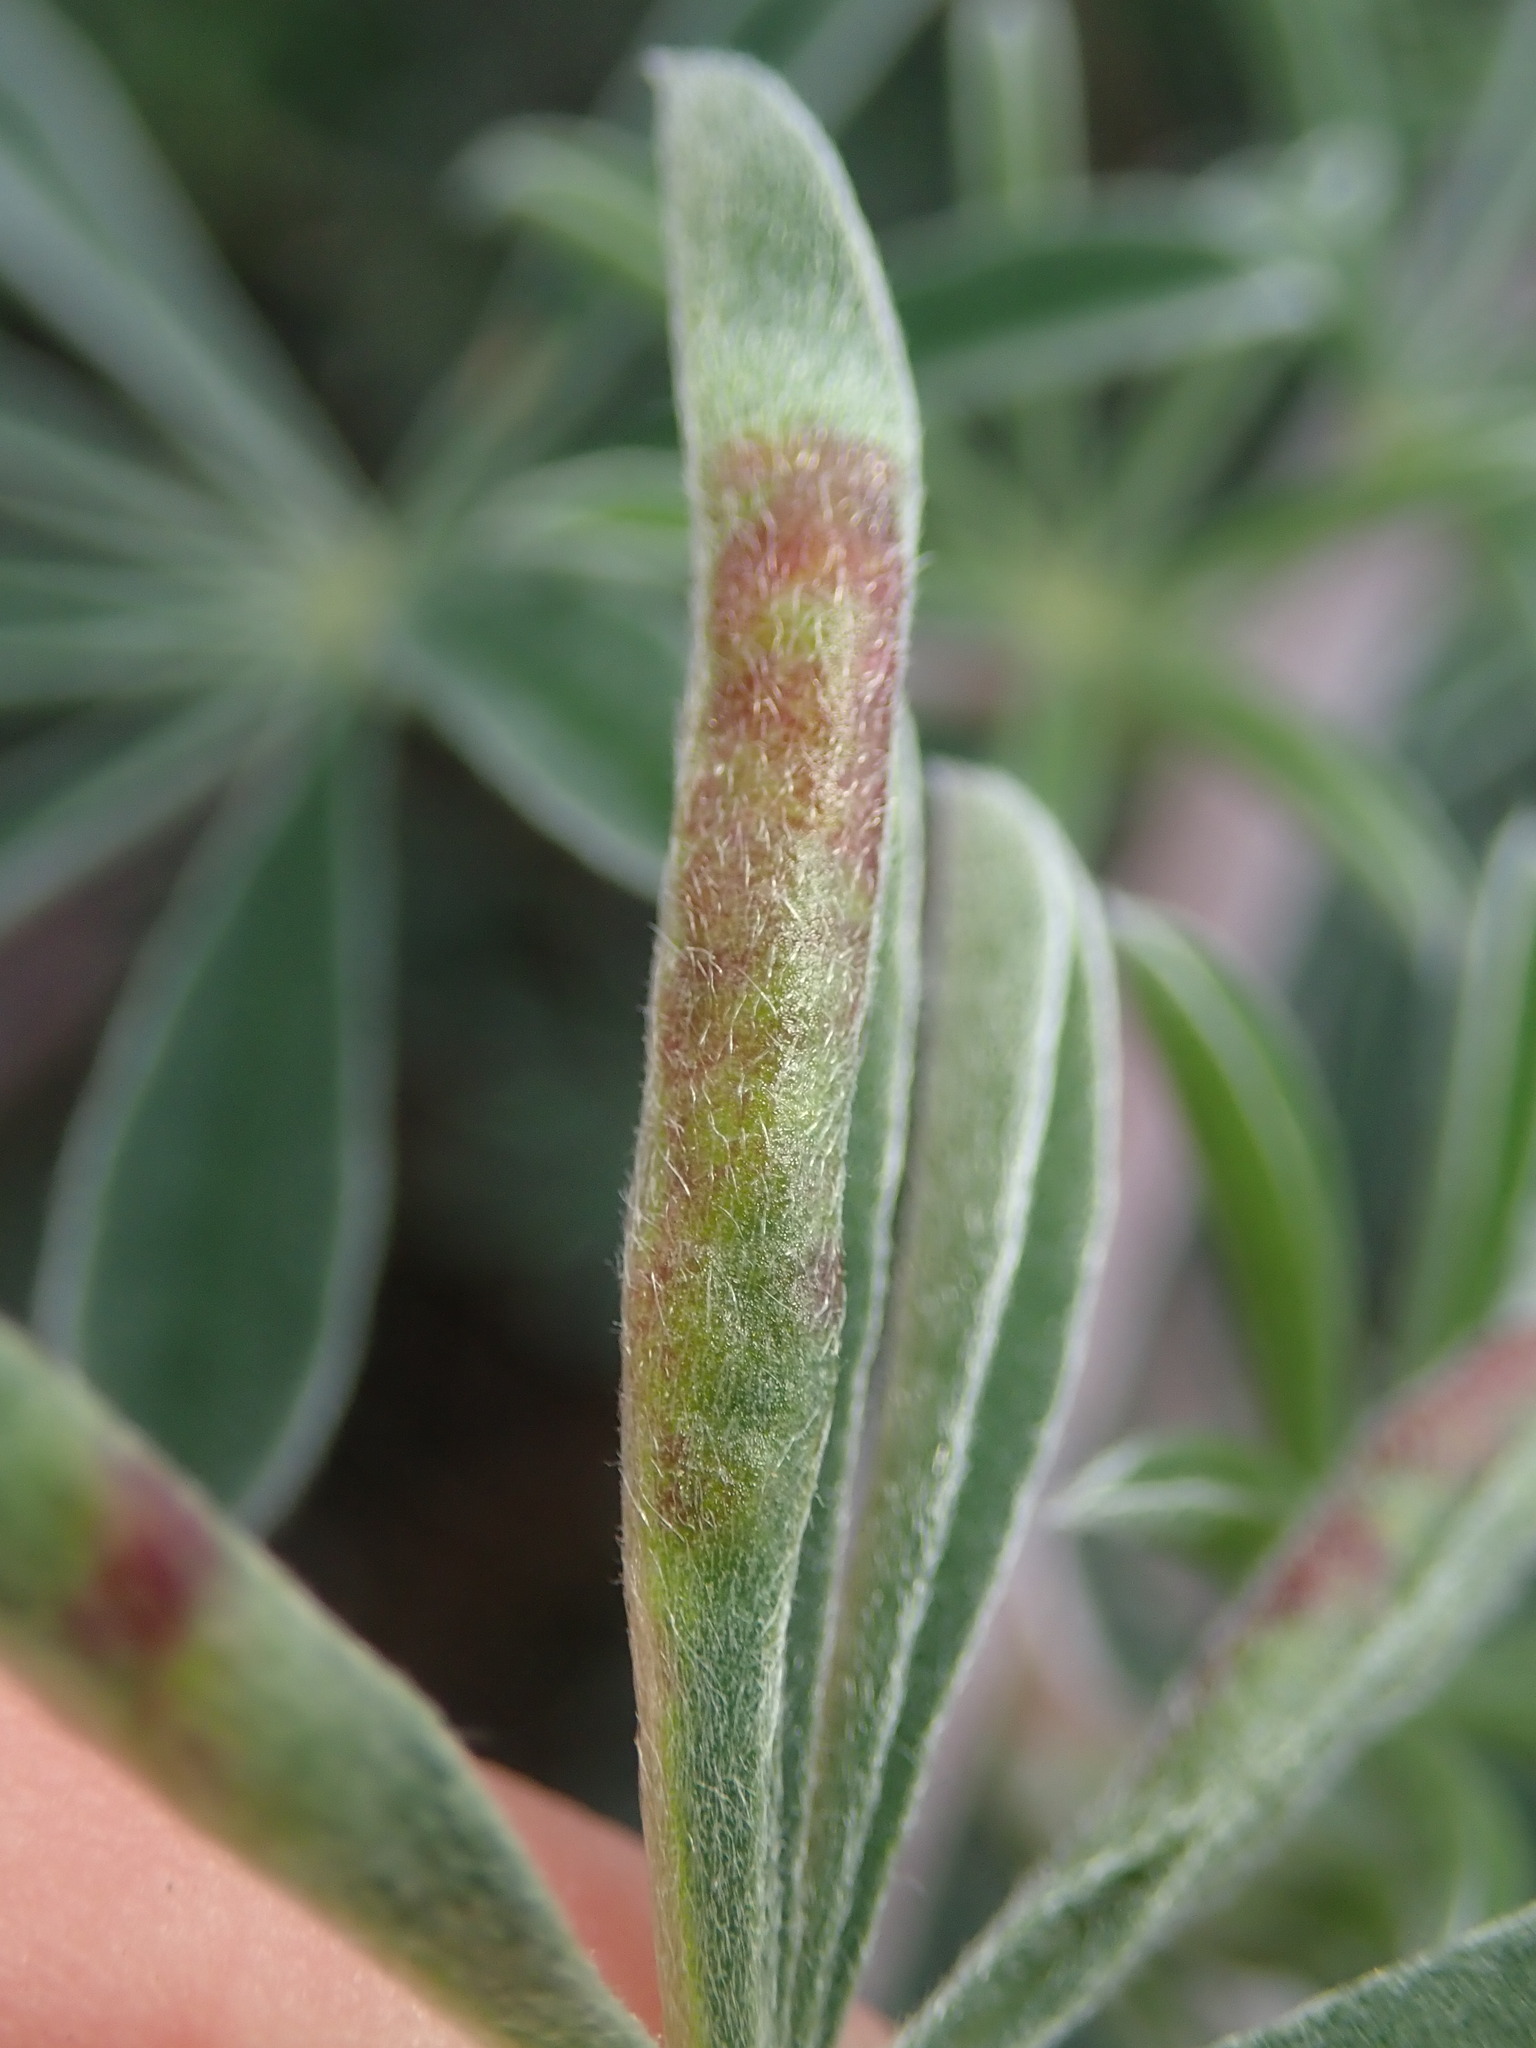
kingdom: Animalia
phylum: Arthropoda
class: Insecta
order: Diptera
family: Cecidomyiidae
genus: Dasineura
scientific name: Dasineura lupinorum
